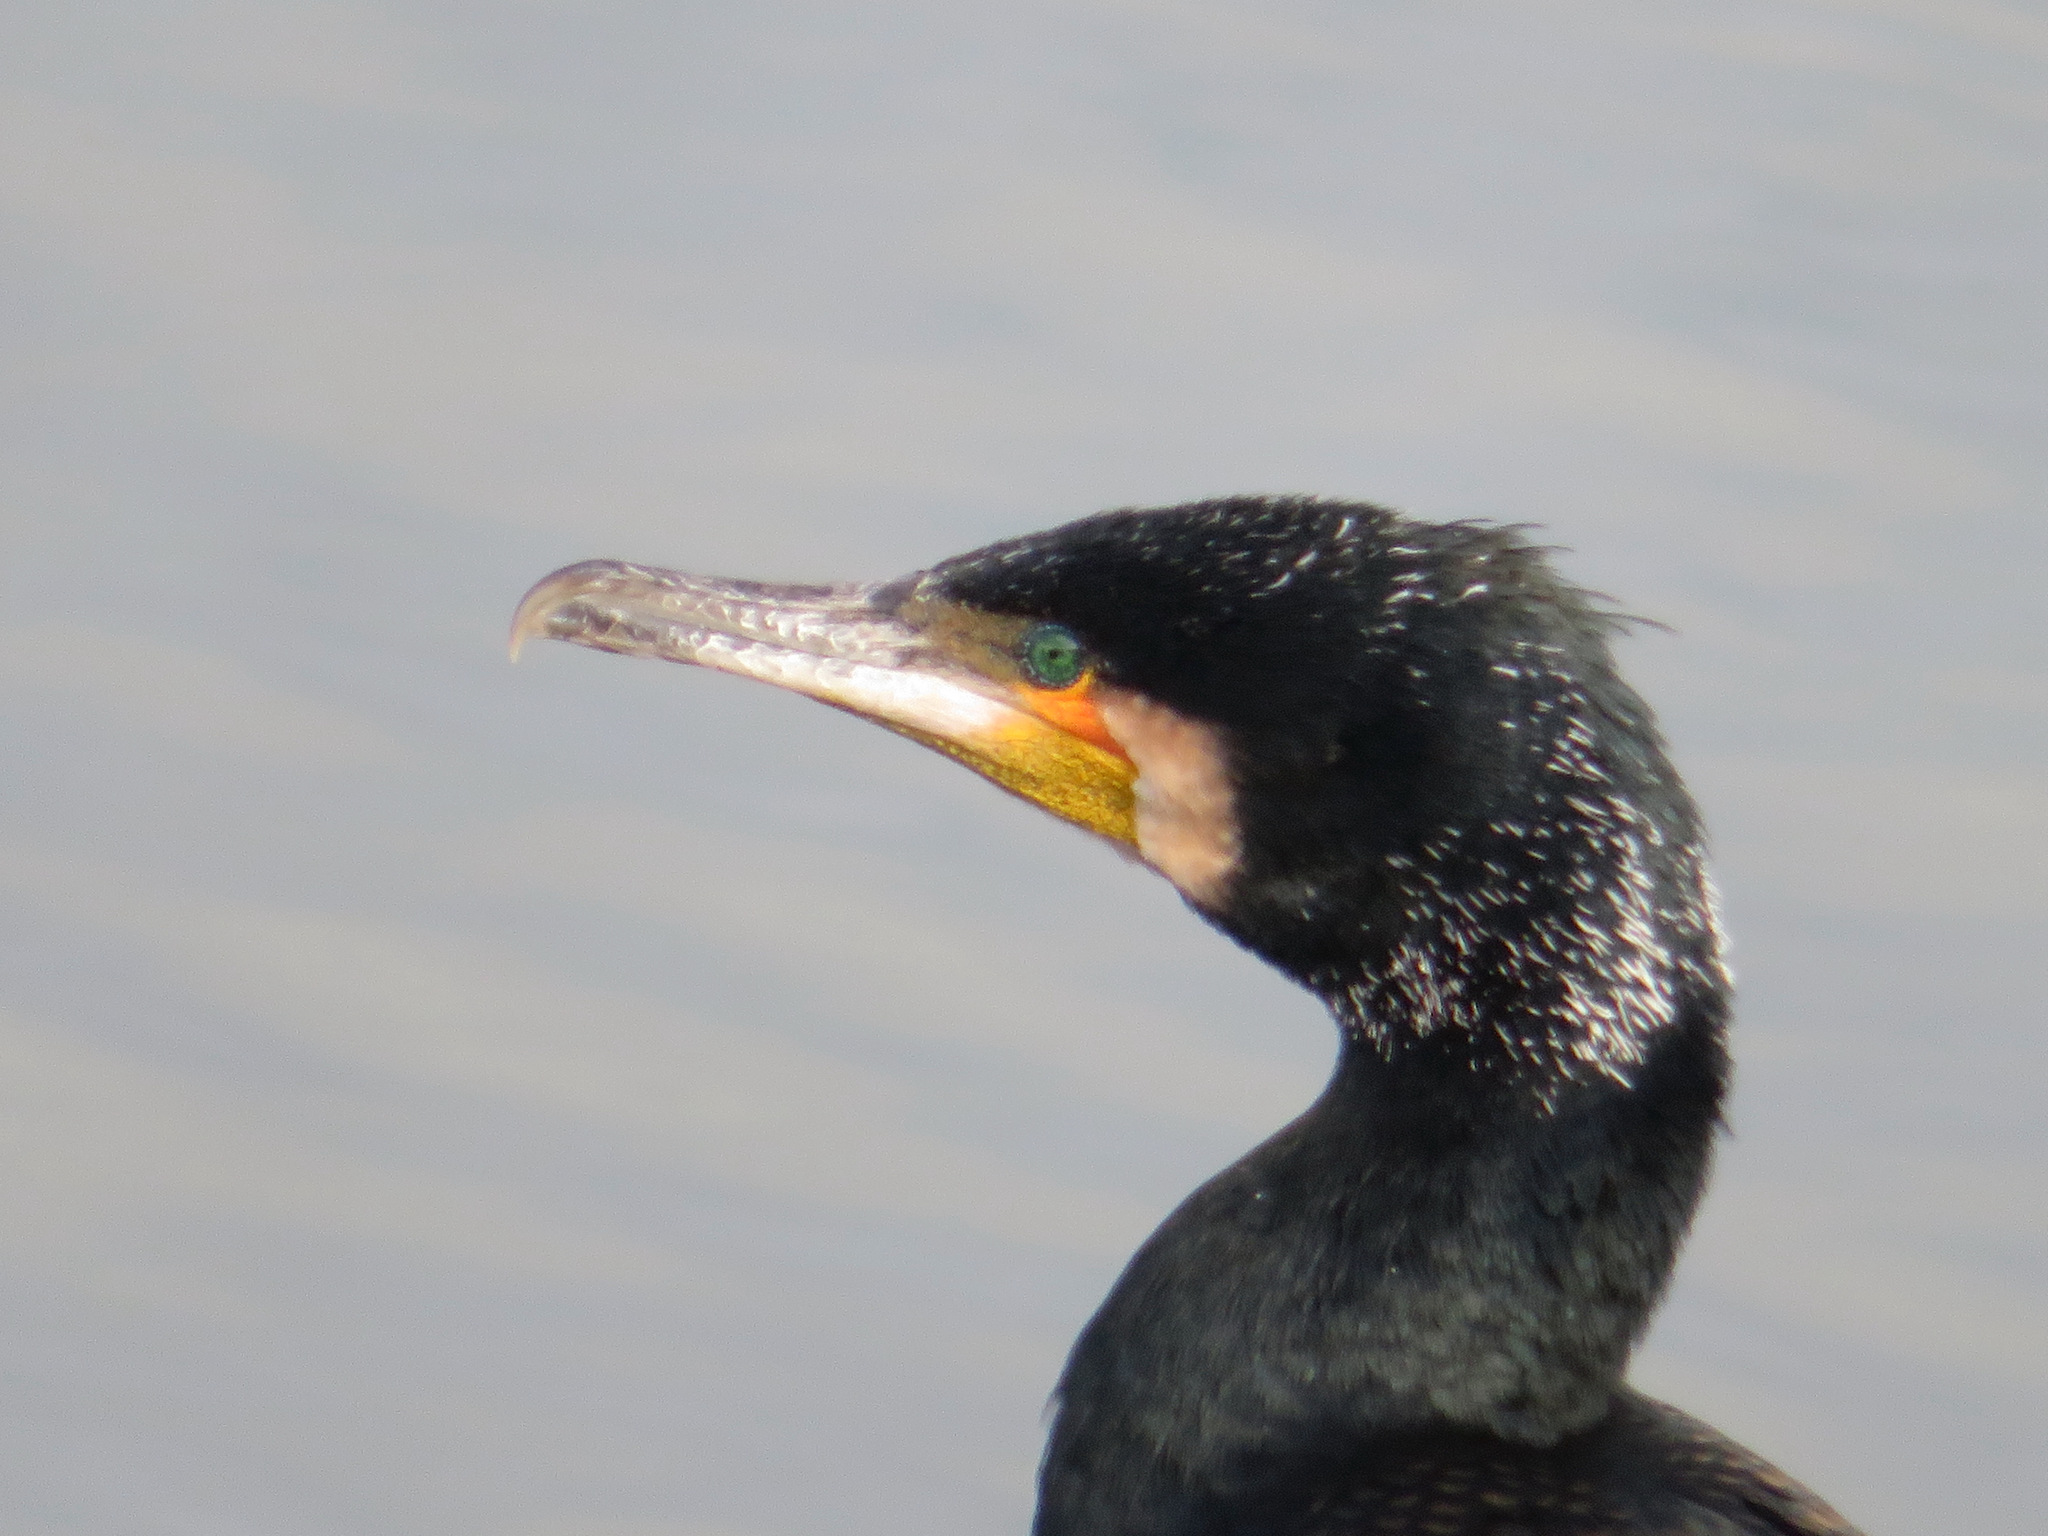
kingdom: Animalia
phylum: Chordata
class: Aves
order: Suliformes
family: Phalacrocoracidae
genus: Phalacrocorax
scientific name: Phalacrocorax carbo
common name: Great cormorant
